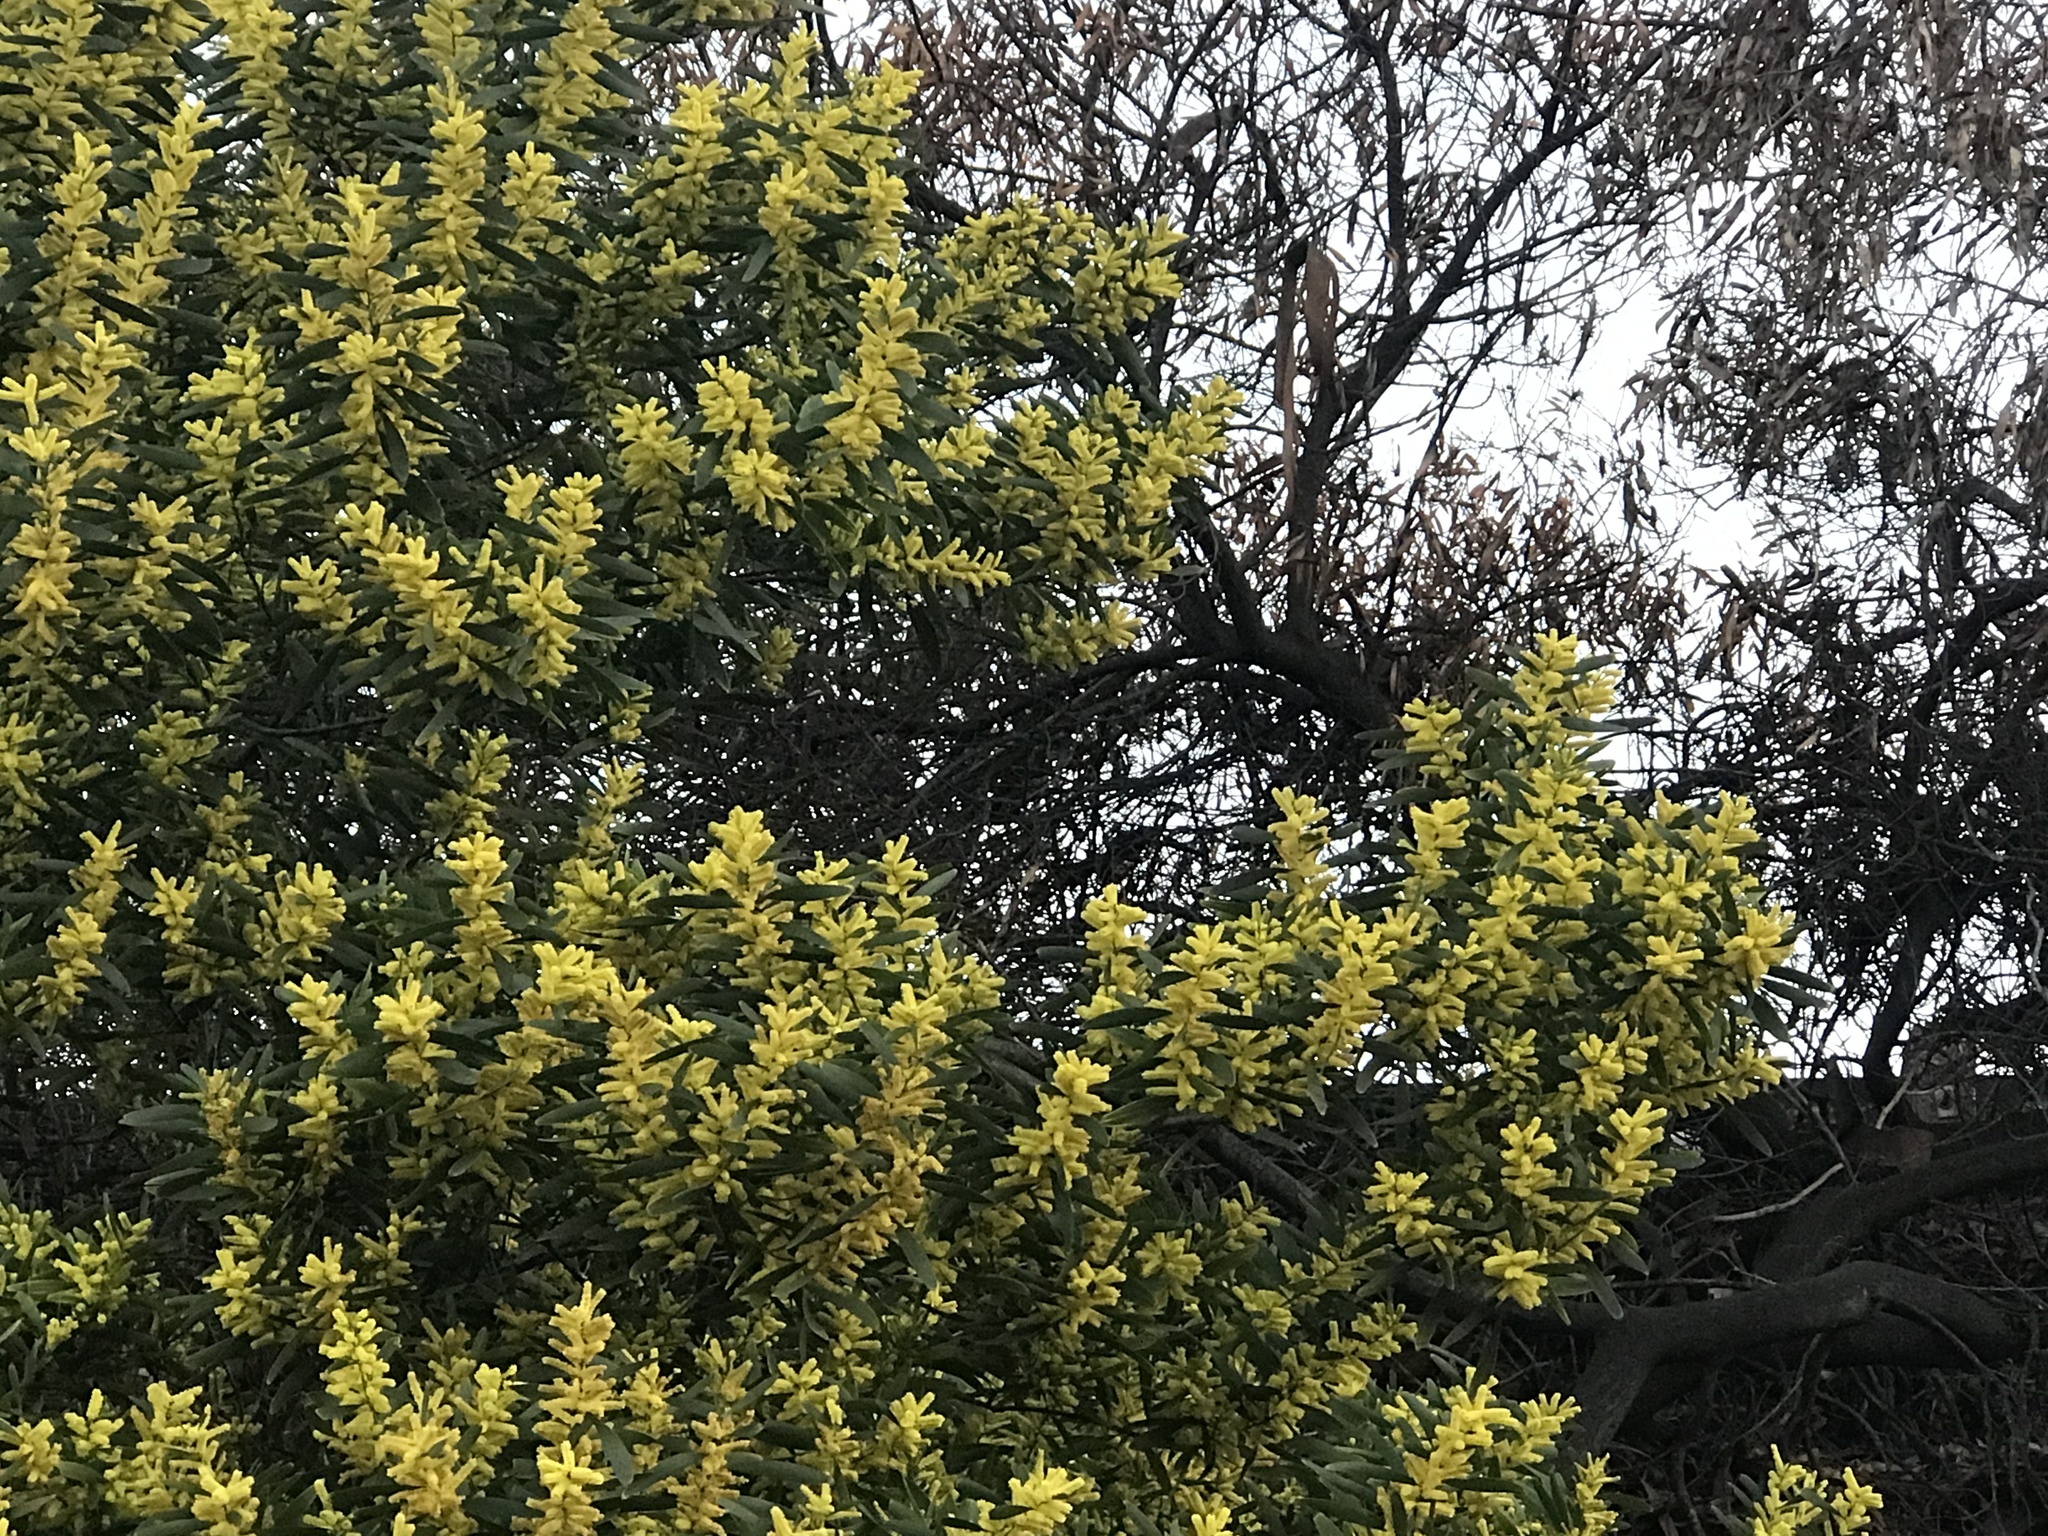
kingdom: Plantae
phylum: Tracheophyta
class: Magnoliopsida
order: Fabales
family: Fabaceae
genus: Acacia
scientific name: Acacia longifolia
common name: Sydney golden wattle
